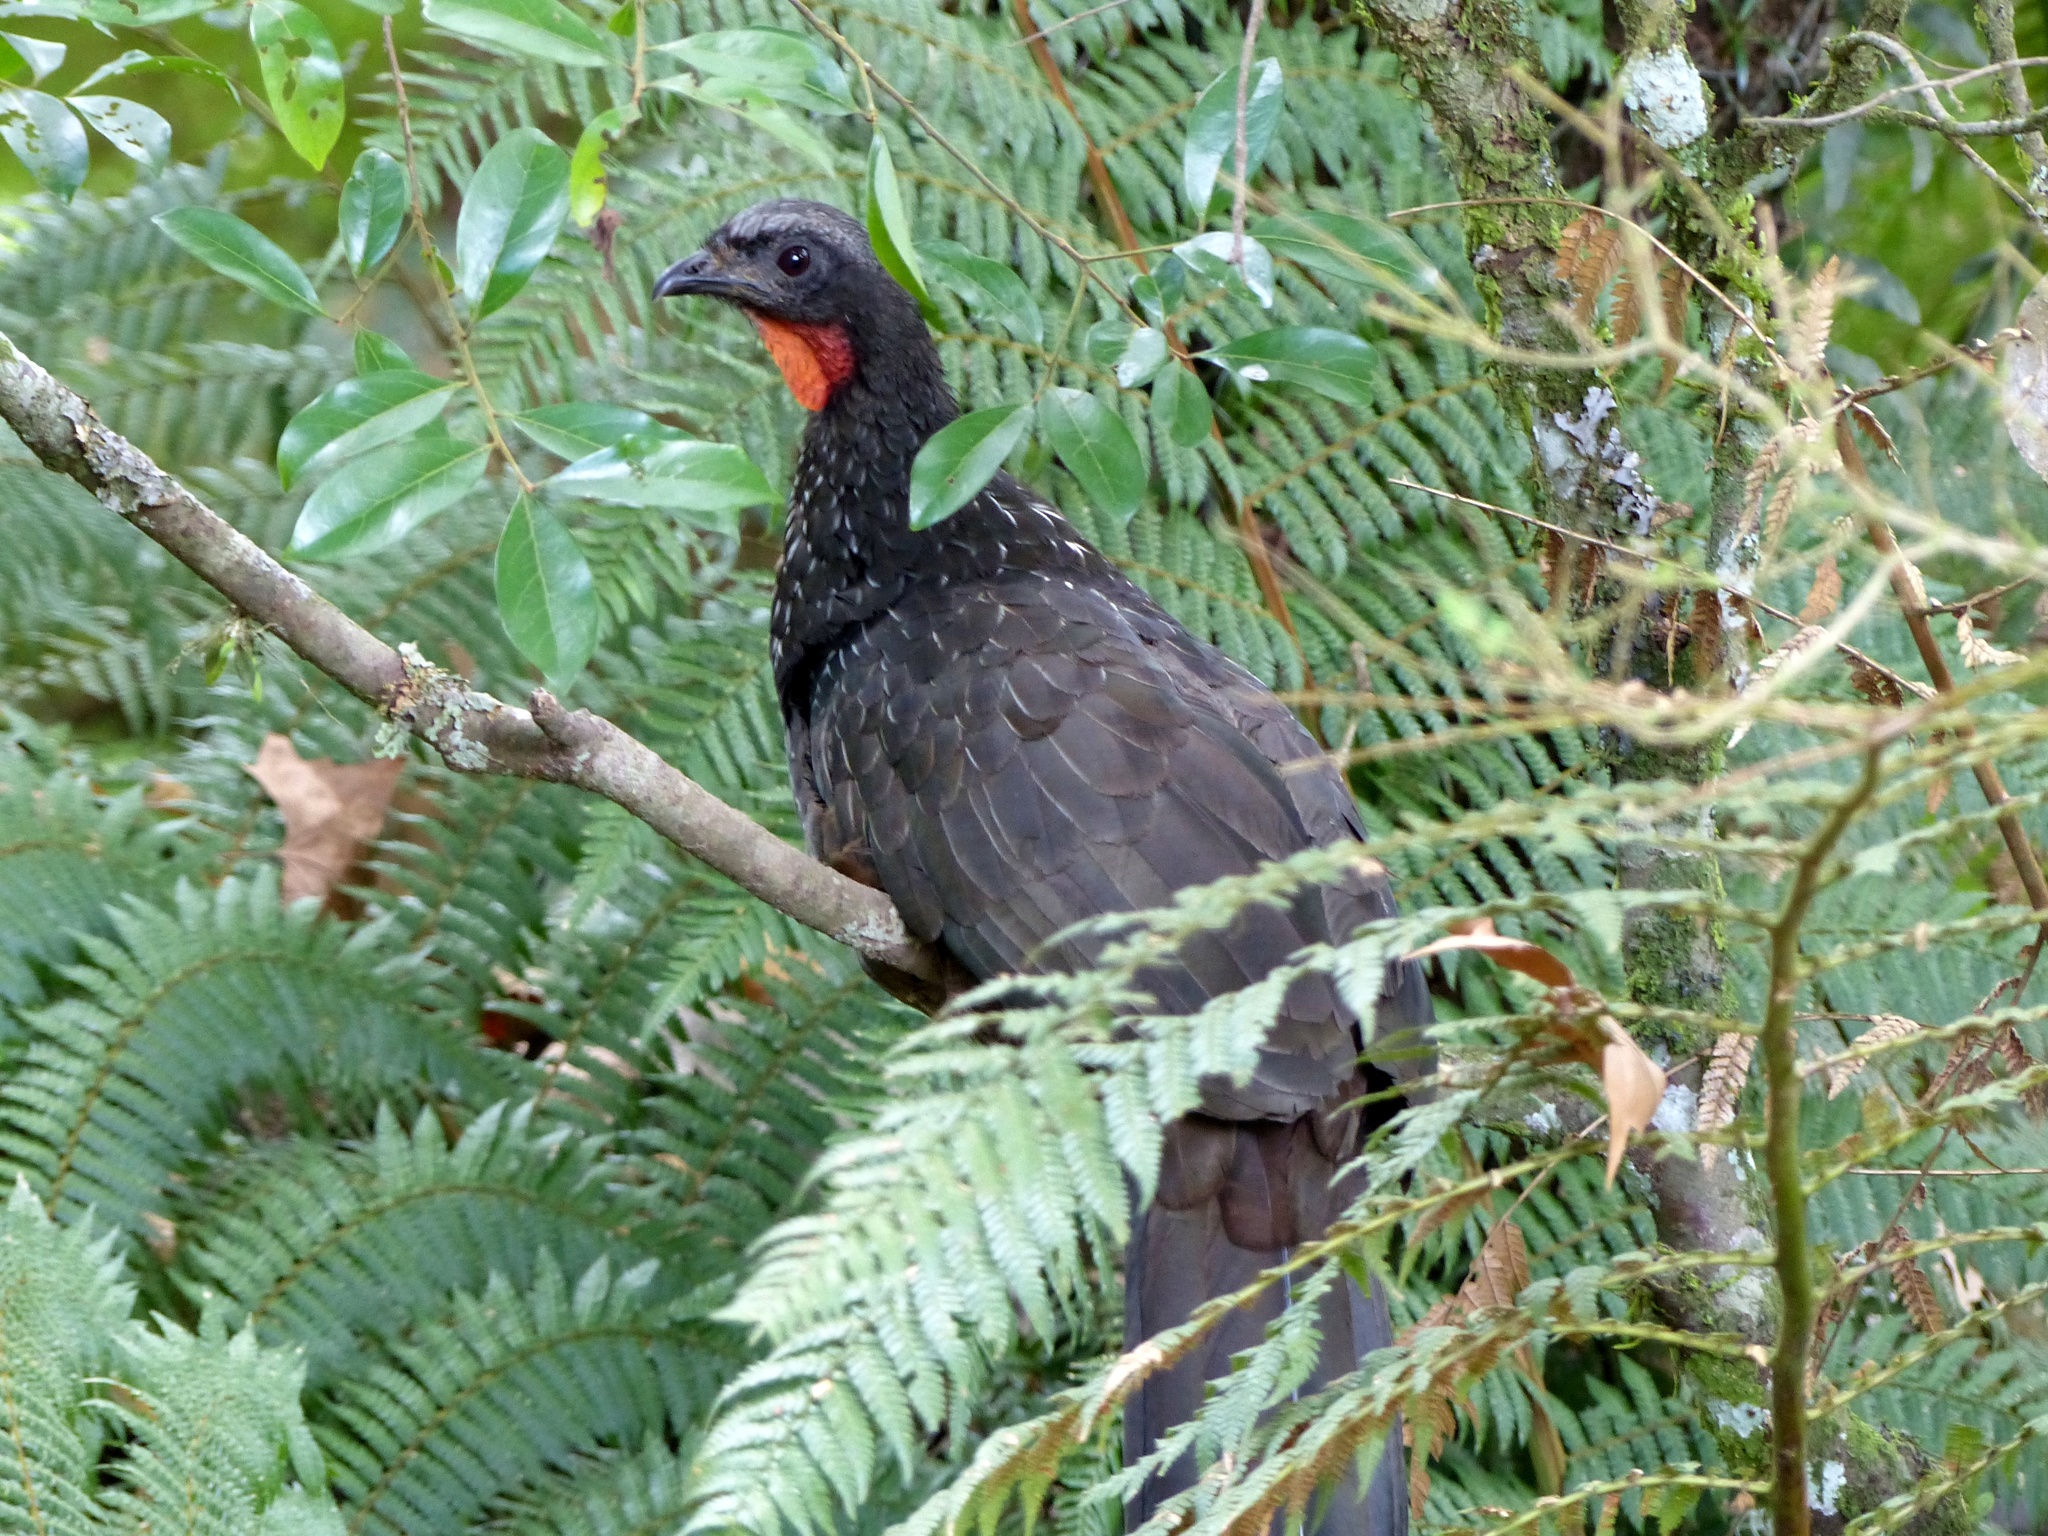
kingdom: Animalia
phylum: Chordata
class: Aves
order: Galliformes
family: Cracidae
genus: Penelope
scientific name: Penelope obscura
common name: Dusky-legged guan
